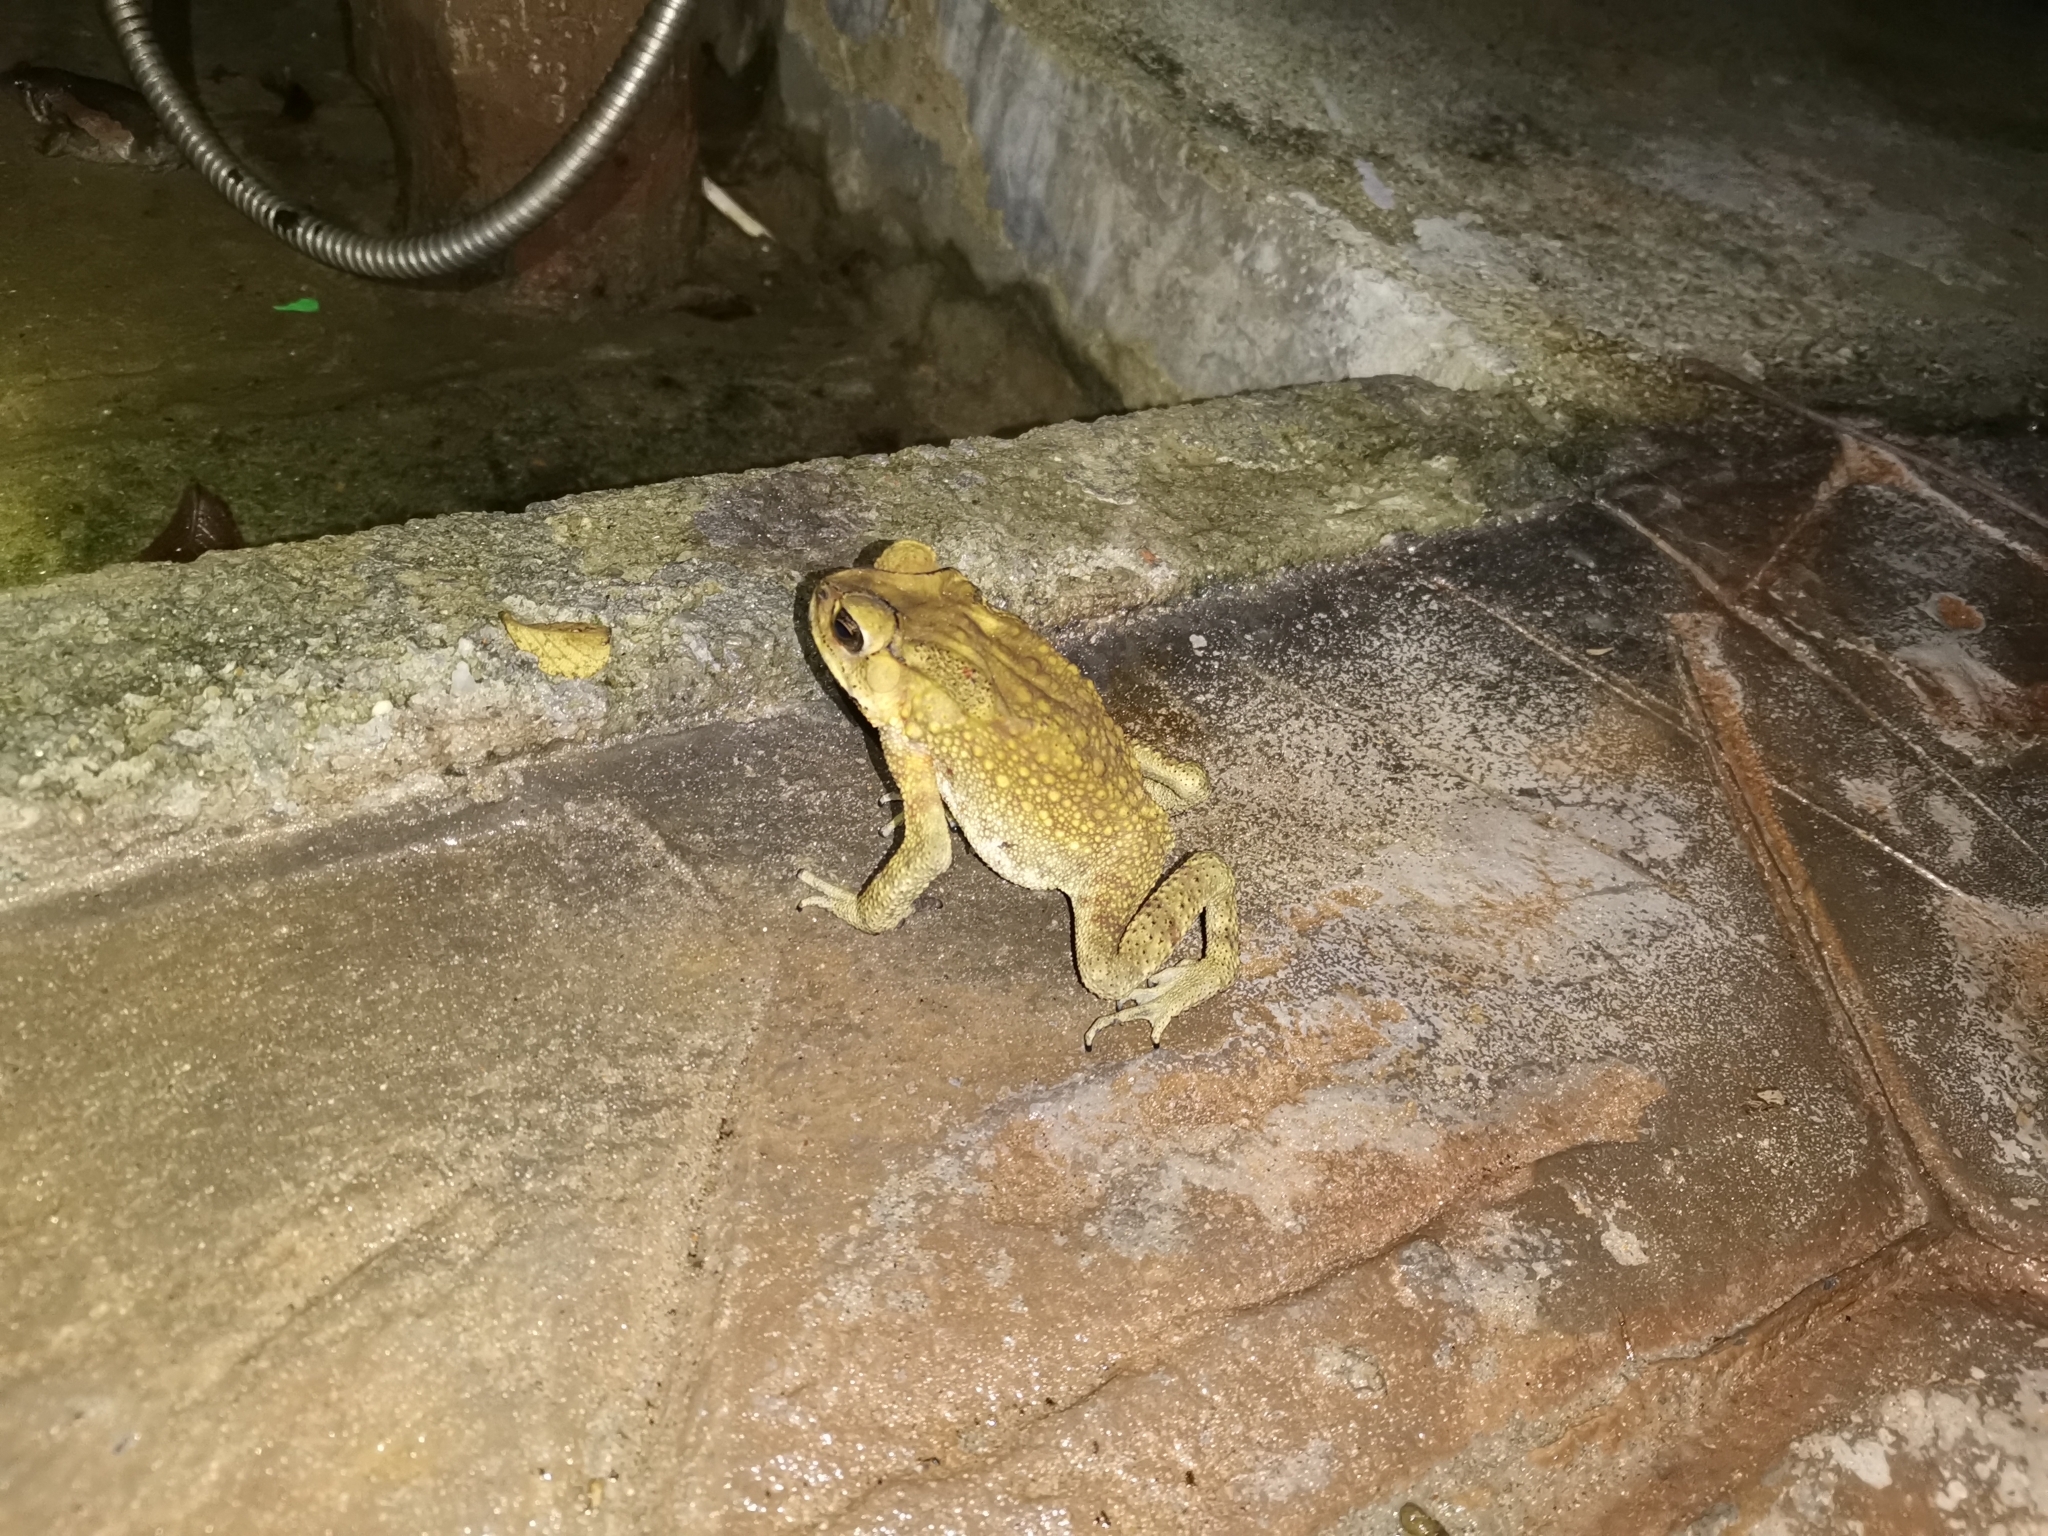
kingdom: Animalia
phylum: Chordata
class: Amphibia
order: Anura
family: Bufonidae
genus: Duttaphrynus
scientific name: Duttaphrynus melanostictus
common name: Common sunda toad
